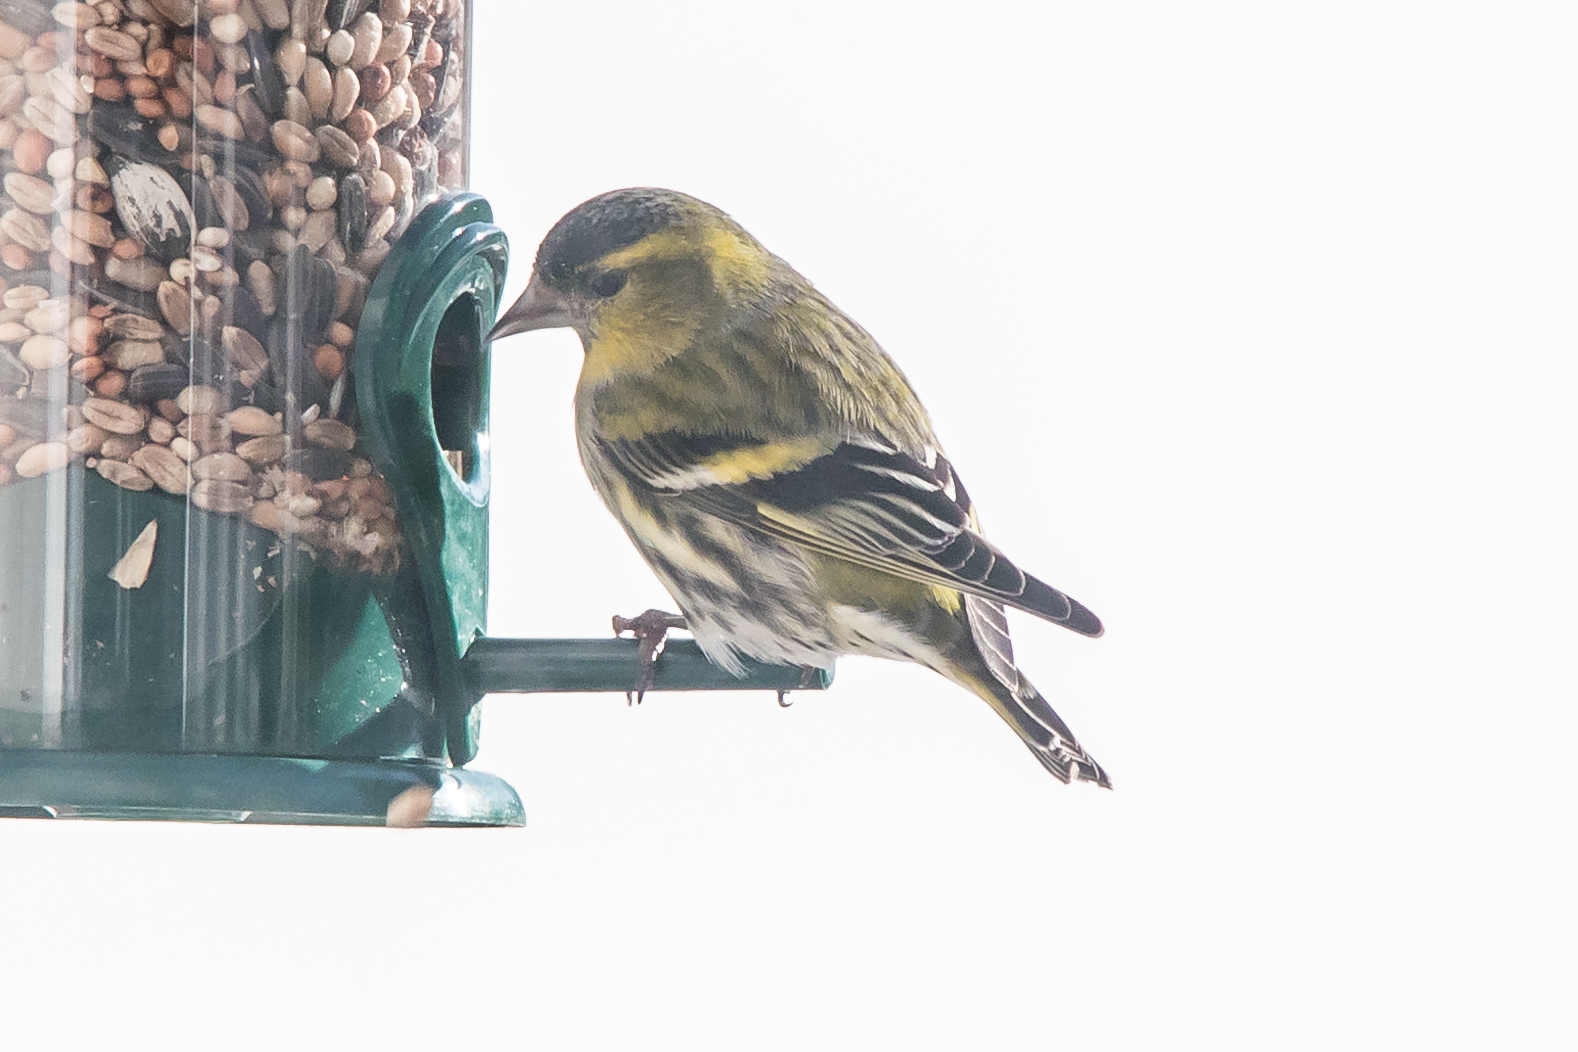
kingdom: Animalia
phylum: Chordata
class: Aves
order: Passeriformes
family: Fringillidae
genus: Spinus
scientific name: Spinus spinus
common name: Eurasian siskin
